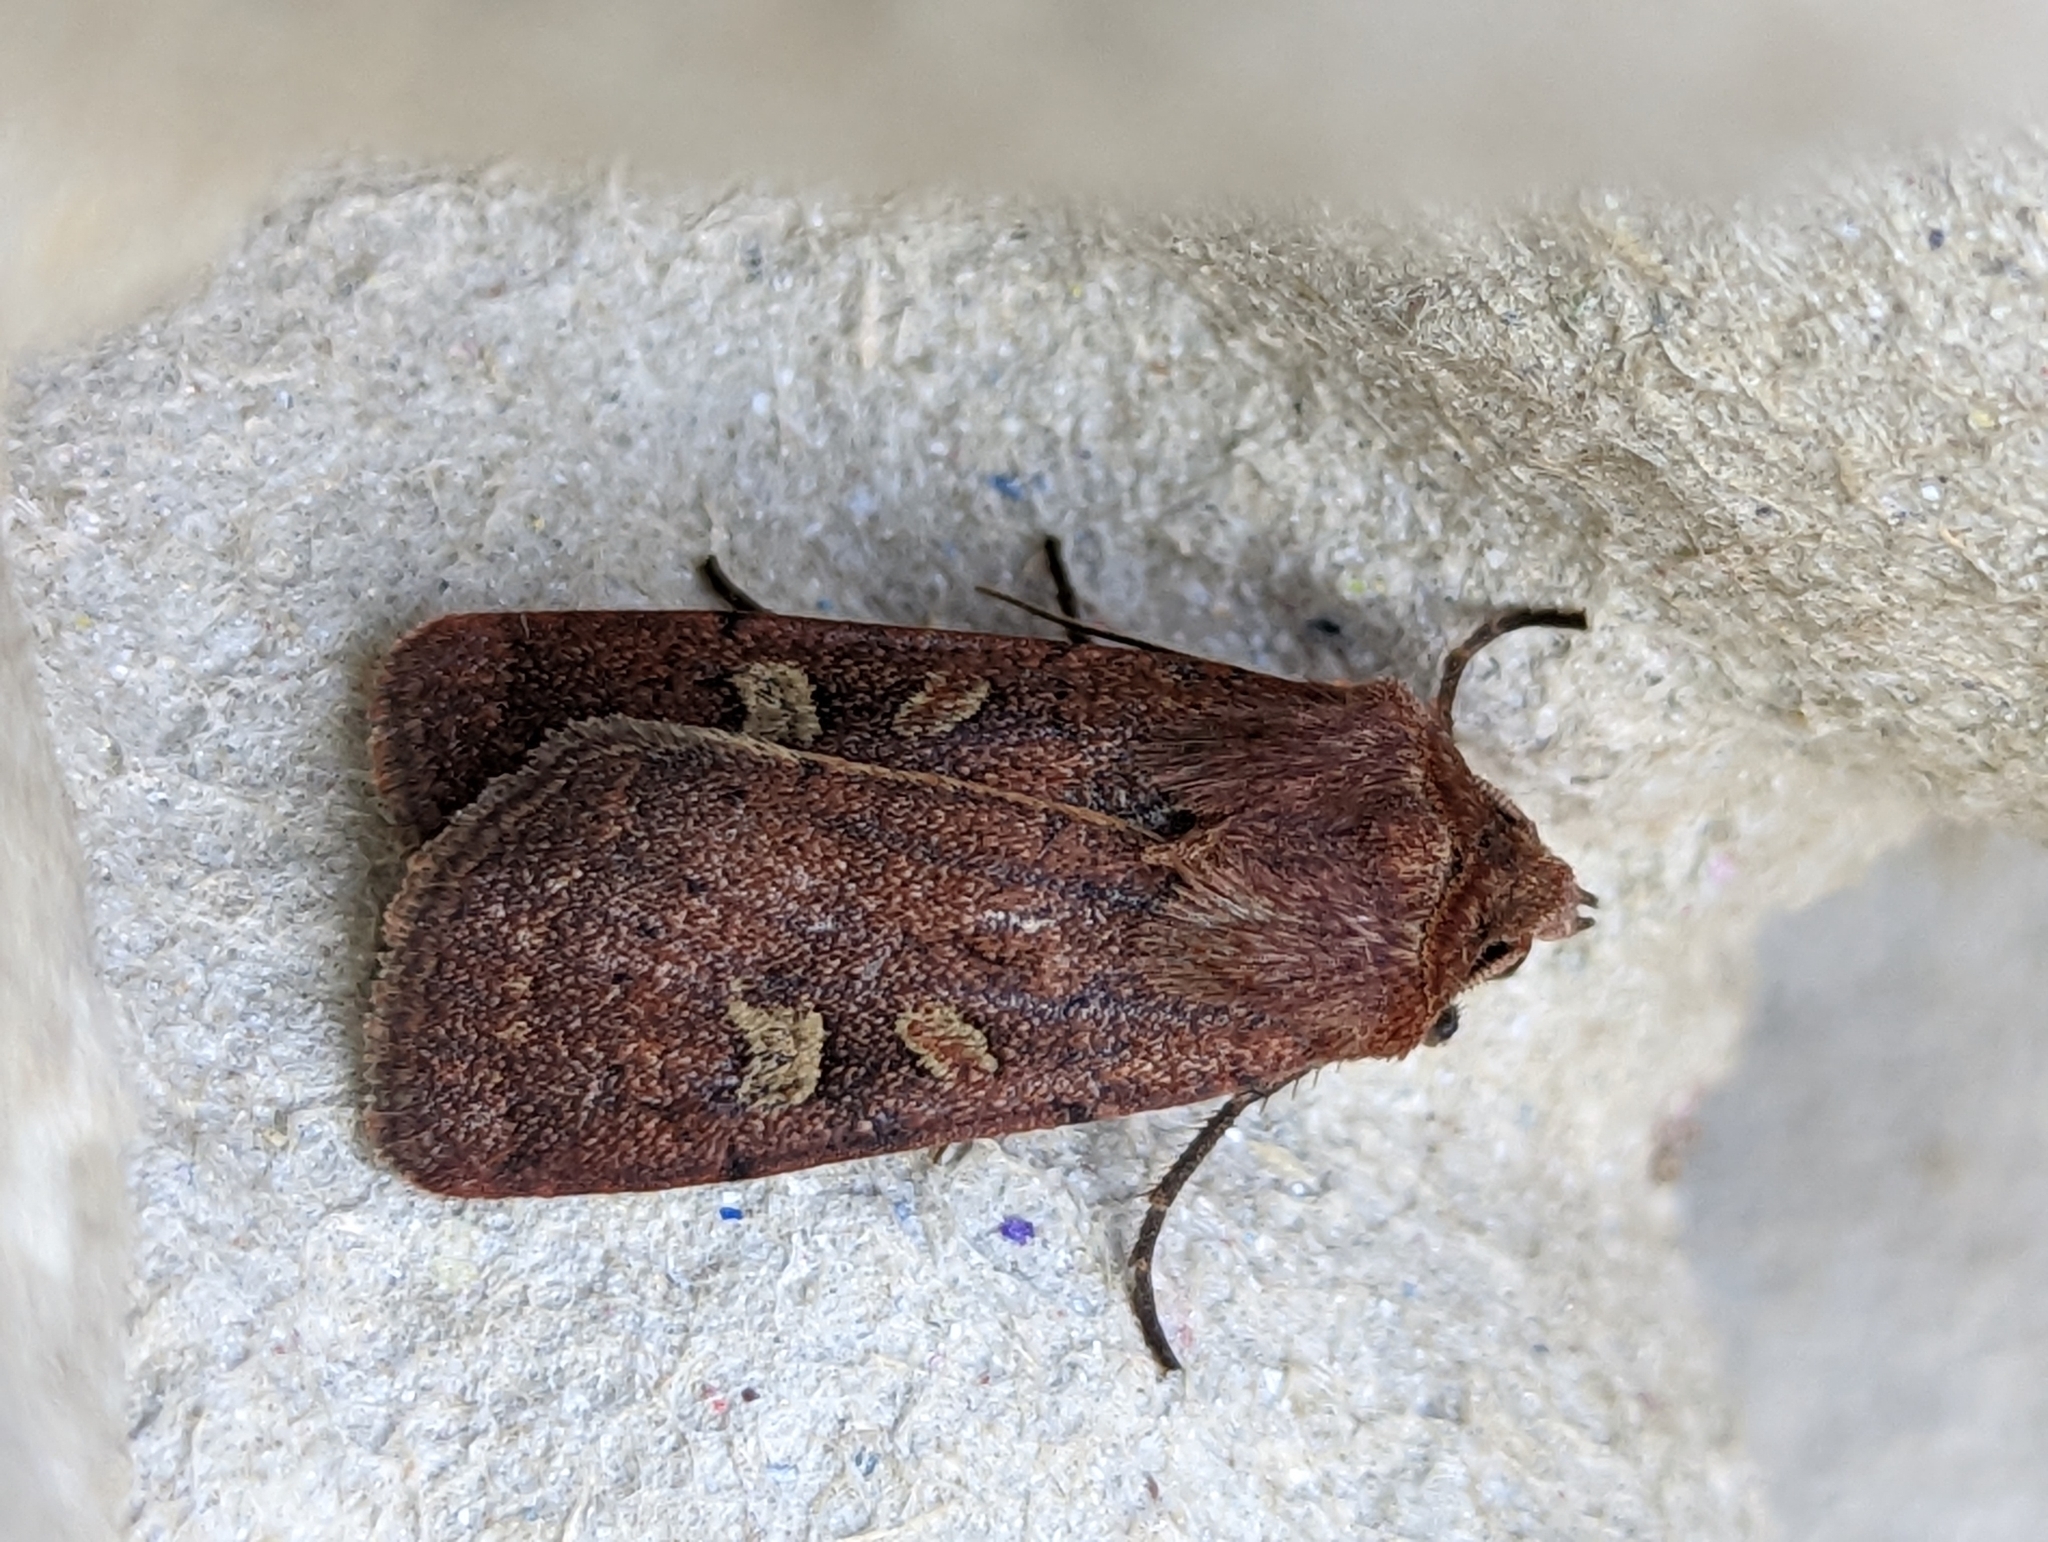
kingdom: Animalia
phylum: Arthropoda
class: Insecta
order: Lepidoptera
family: Noctuidae
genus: Xestia
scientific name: Xestia xanthographa
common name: Square-spot rustic
